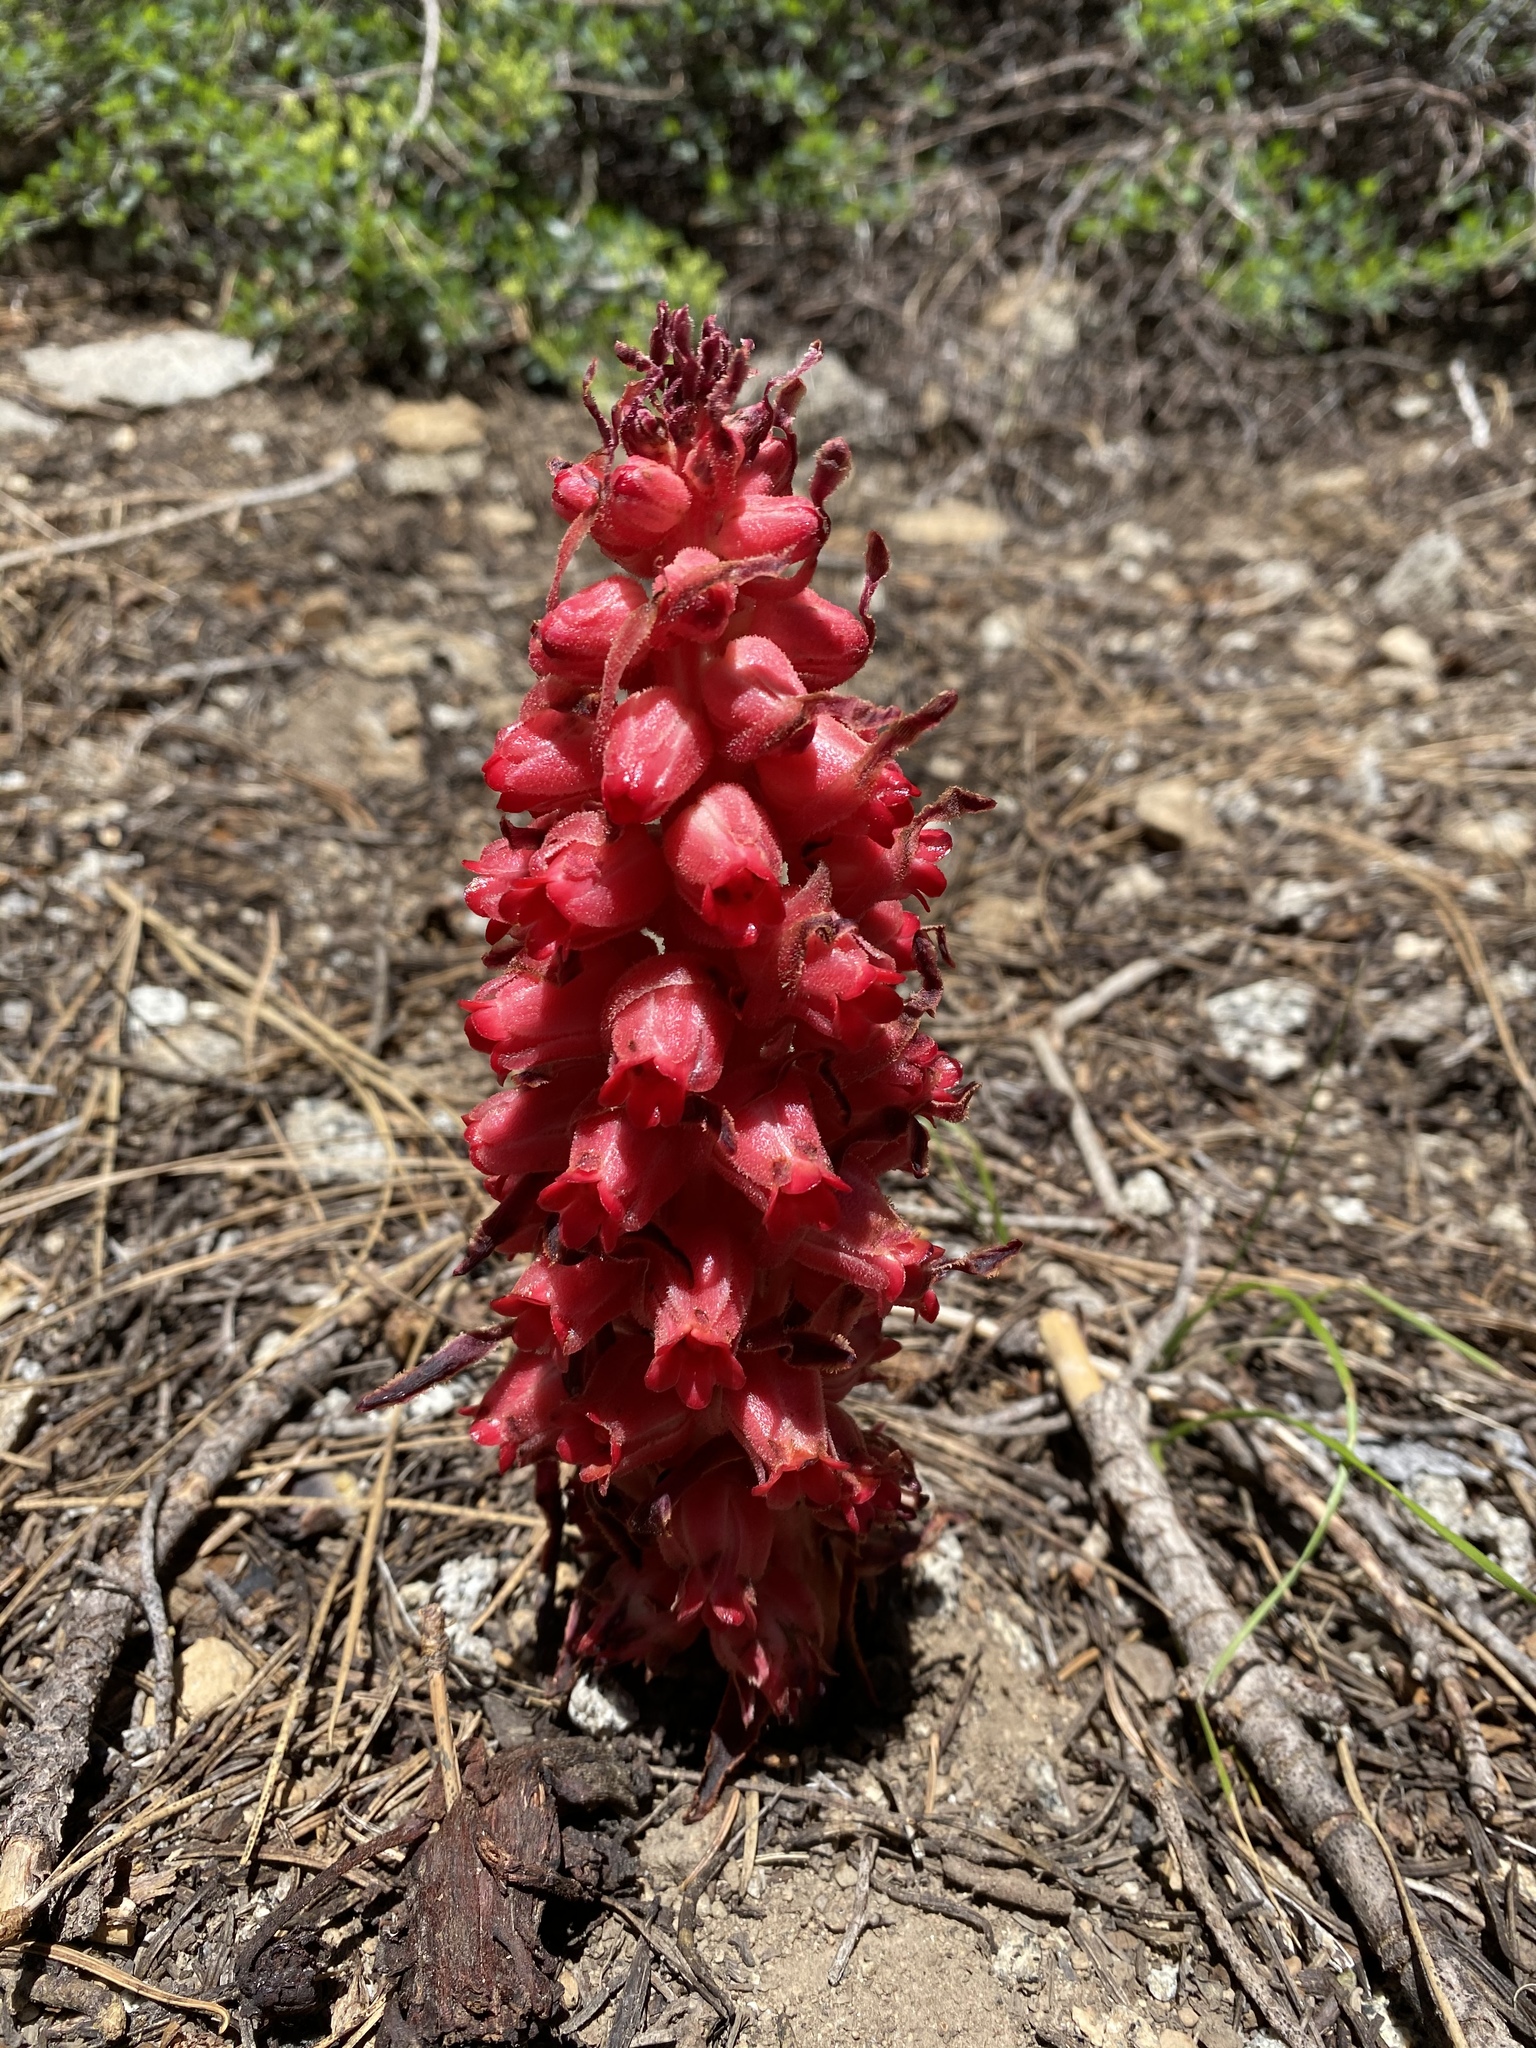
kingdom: Plantae
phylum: Tracheophyta
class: Magnoliopsida
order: Ericales
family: Ericaceae
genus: Sarcodes
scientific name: Sarcodes sanguinea
